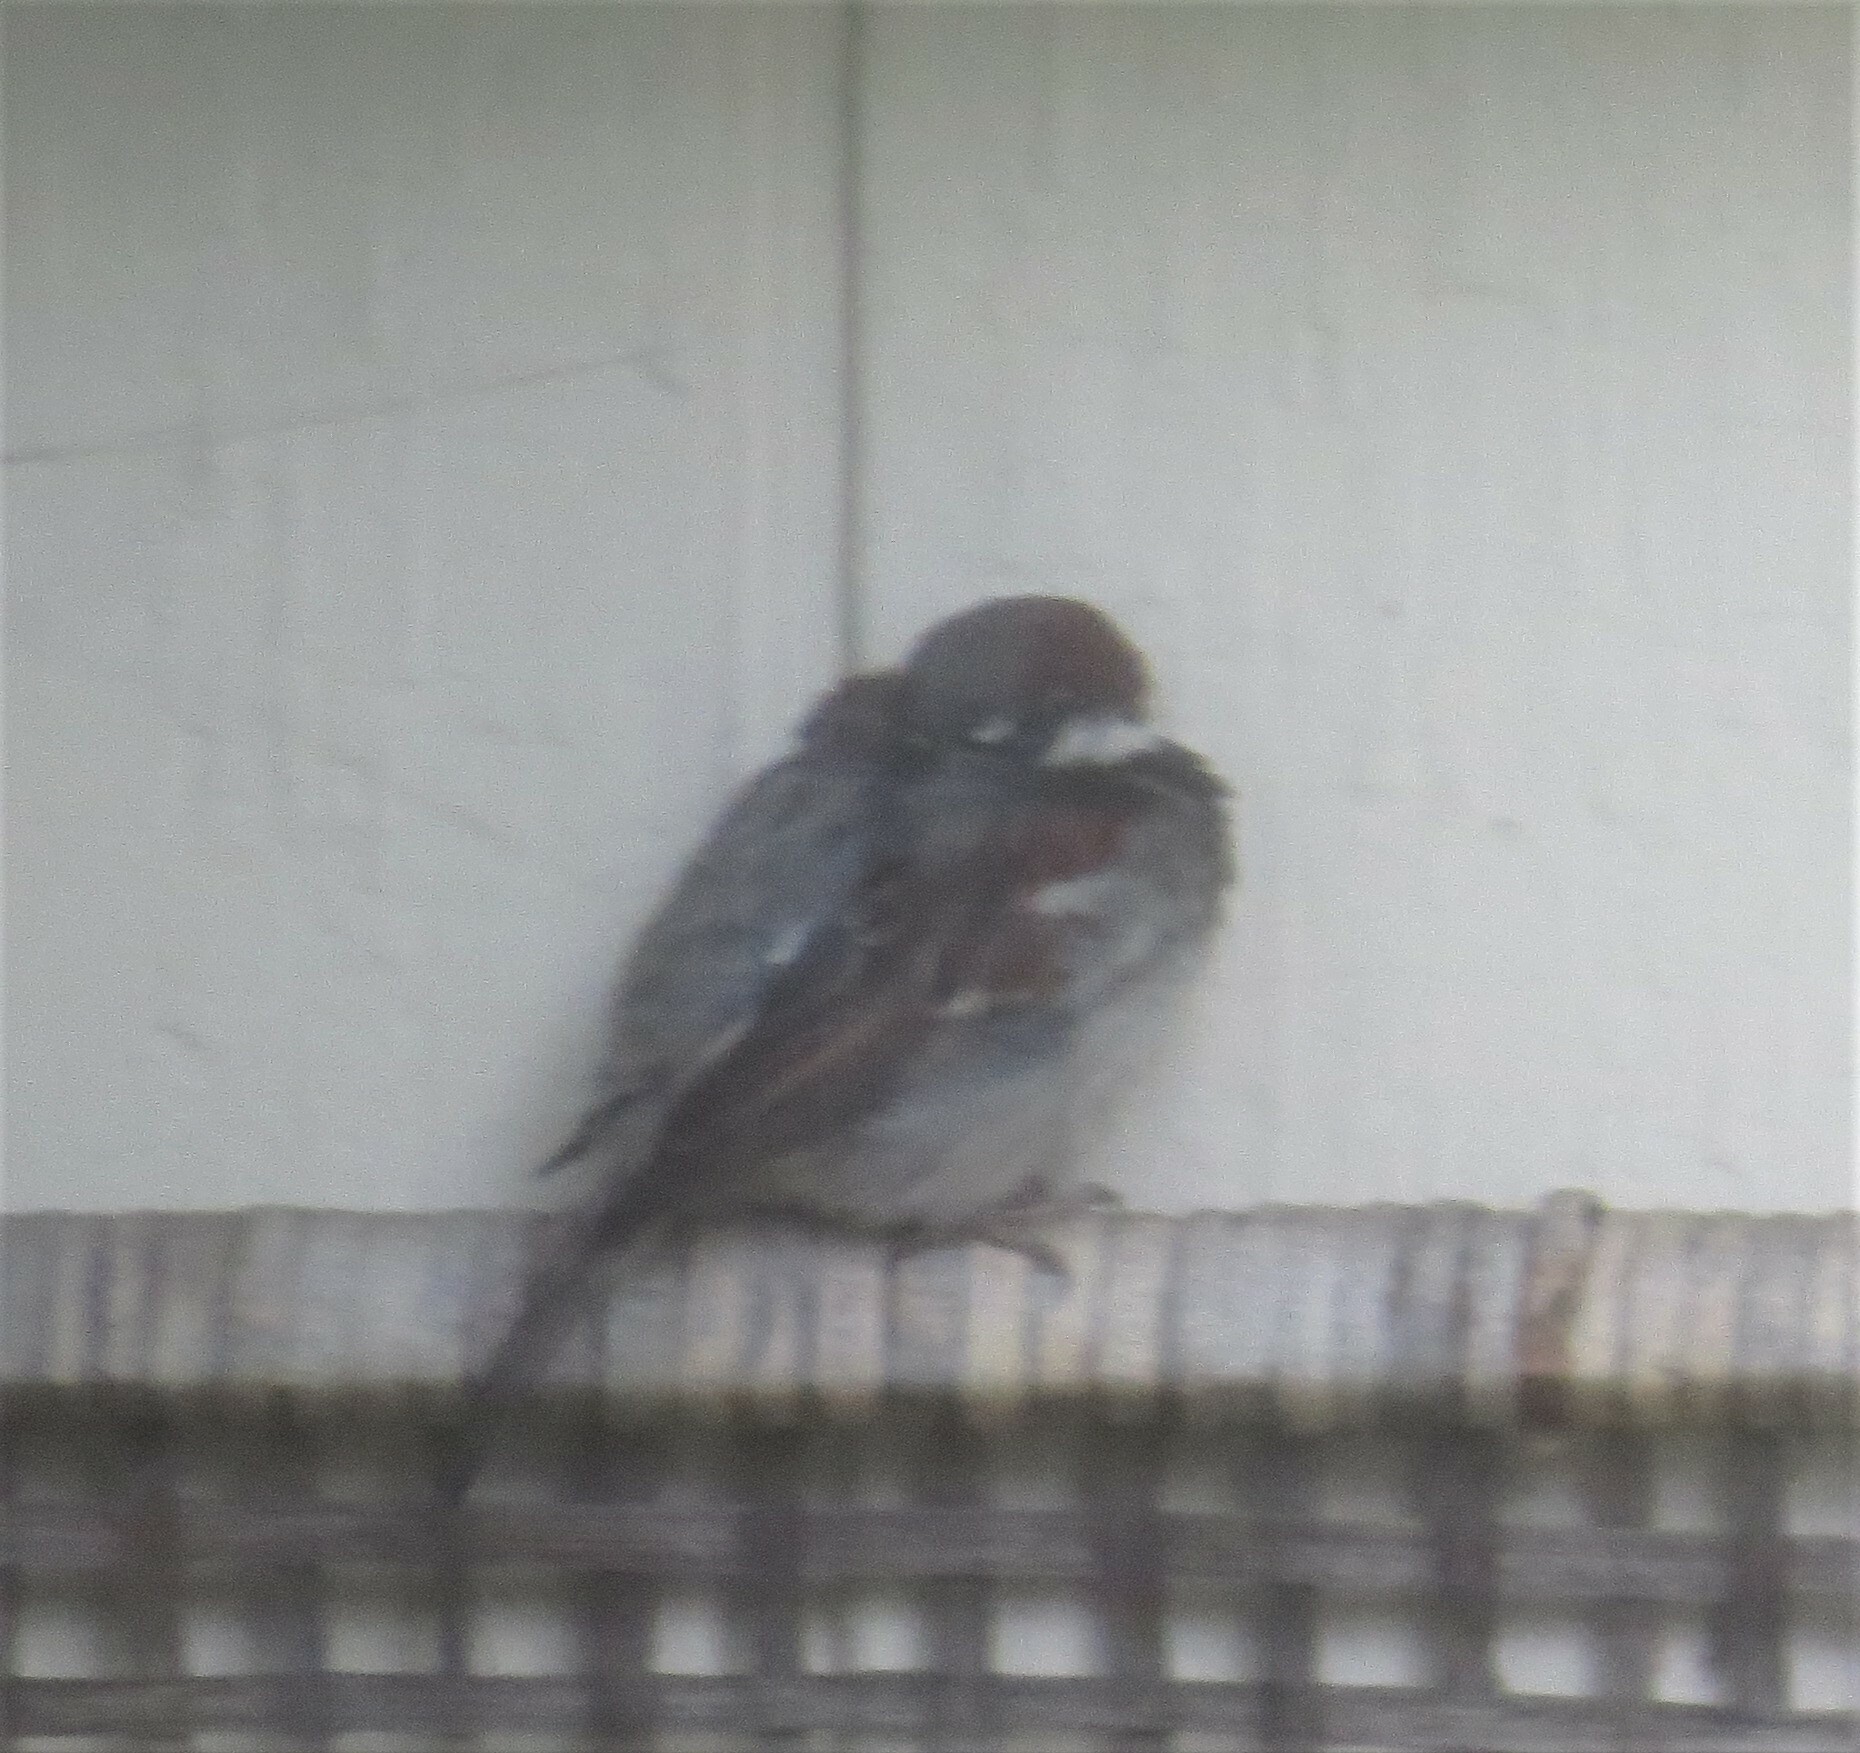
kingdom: Animalia
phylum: Chordata
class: Aves
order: Passeriformes
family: Passeridae
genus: Passer
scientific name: Passer domesticus
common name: House sparrow
